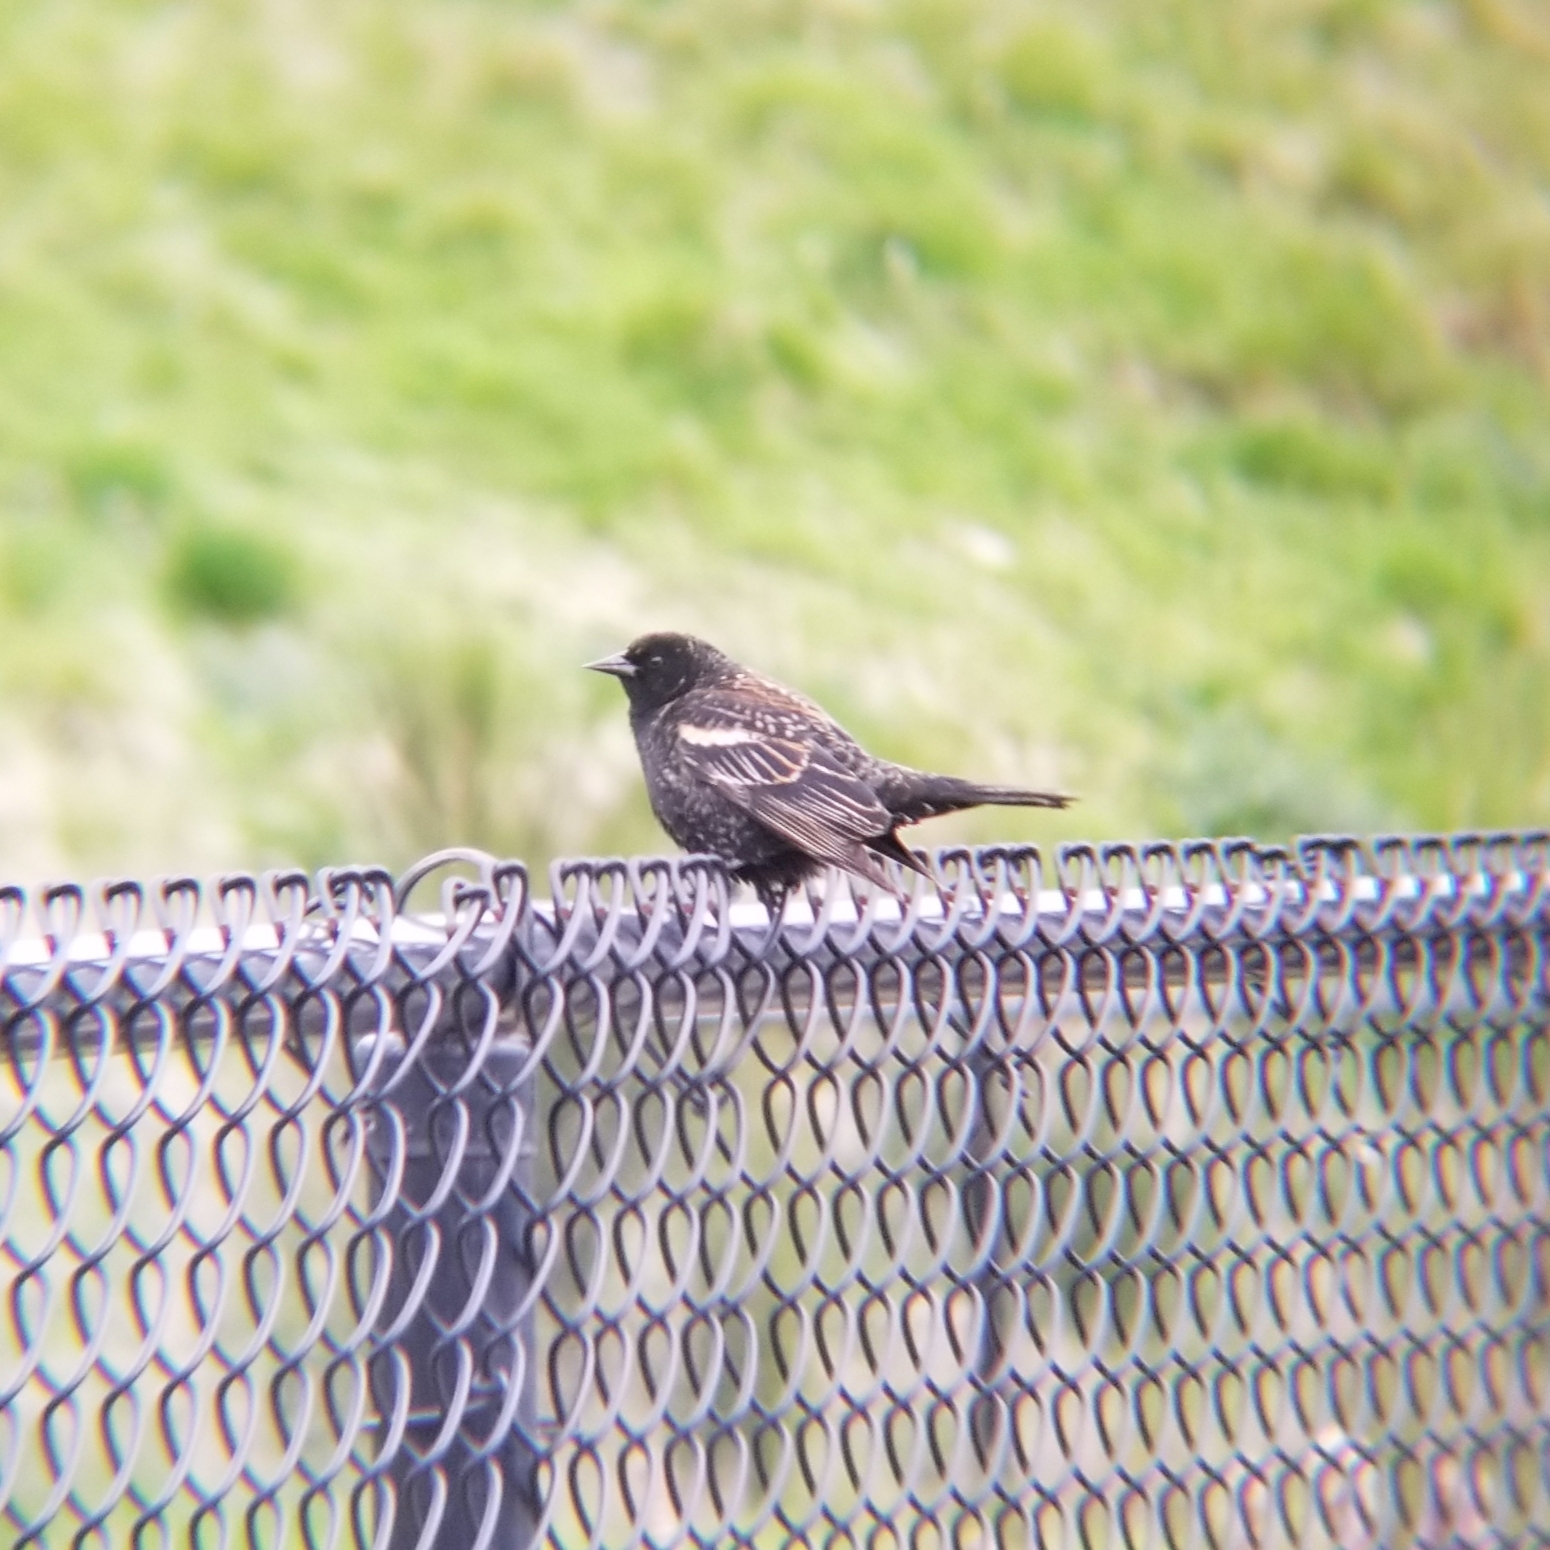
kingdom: Animalia
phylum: Chordata
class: Aves
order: Passeriformes
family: Icteridae
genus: Agelaius
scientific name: Agelaius phoeniceus
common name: Red-winged blackbird
